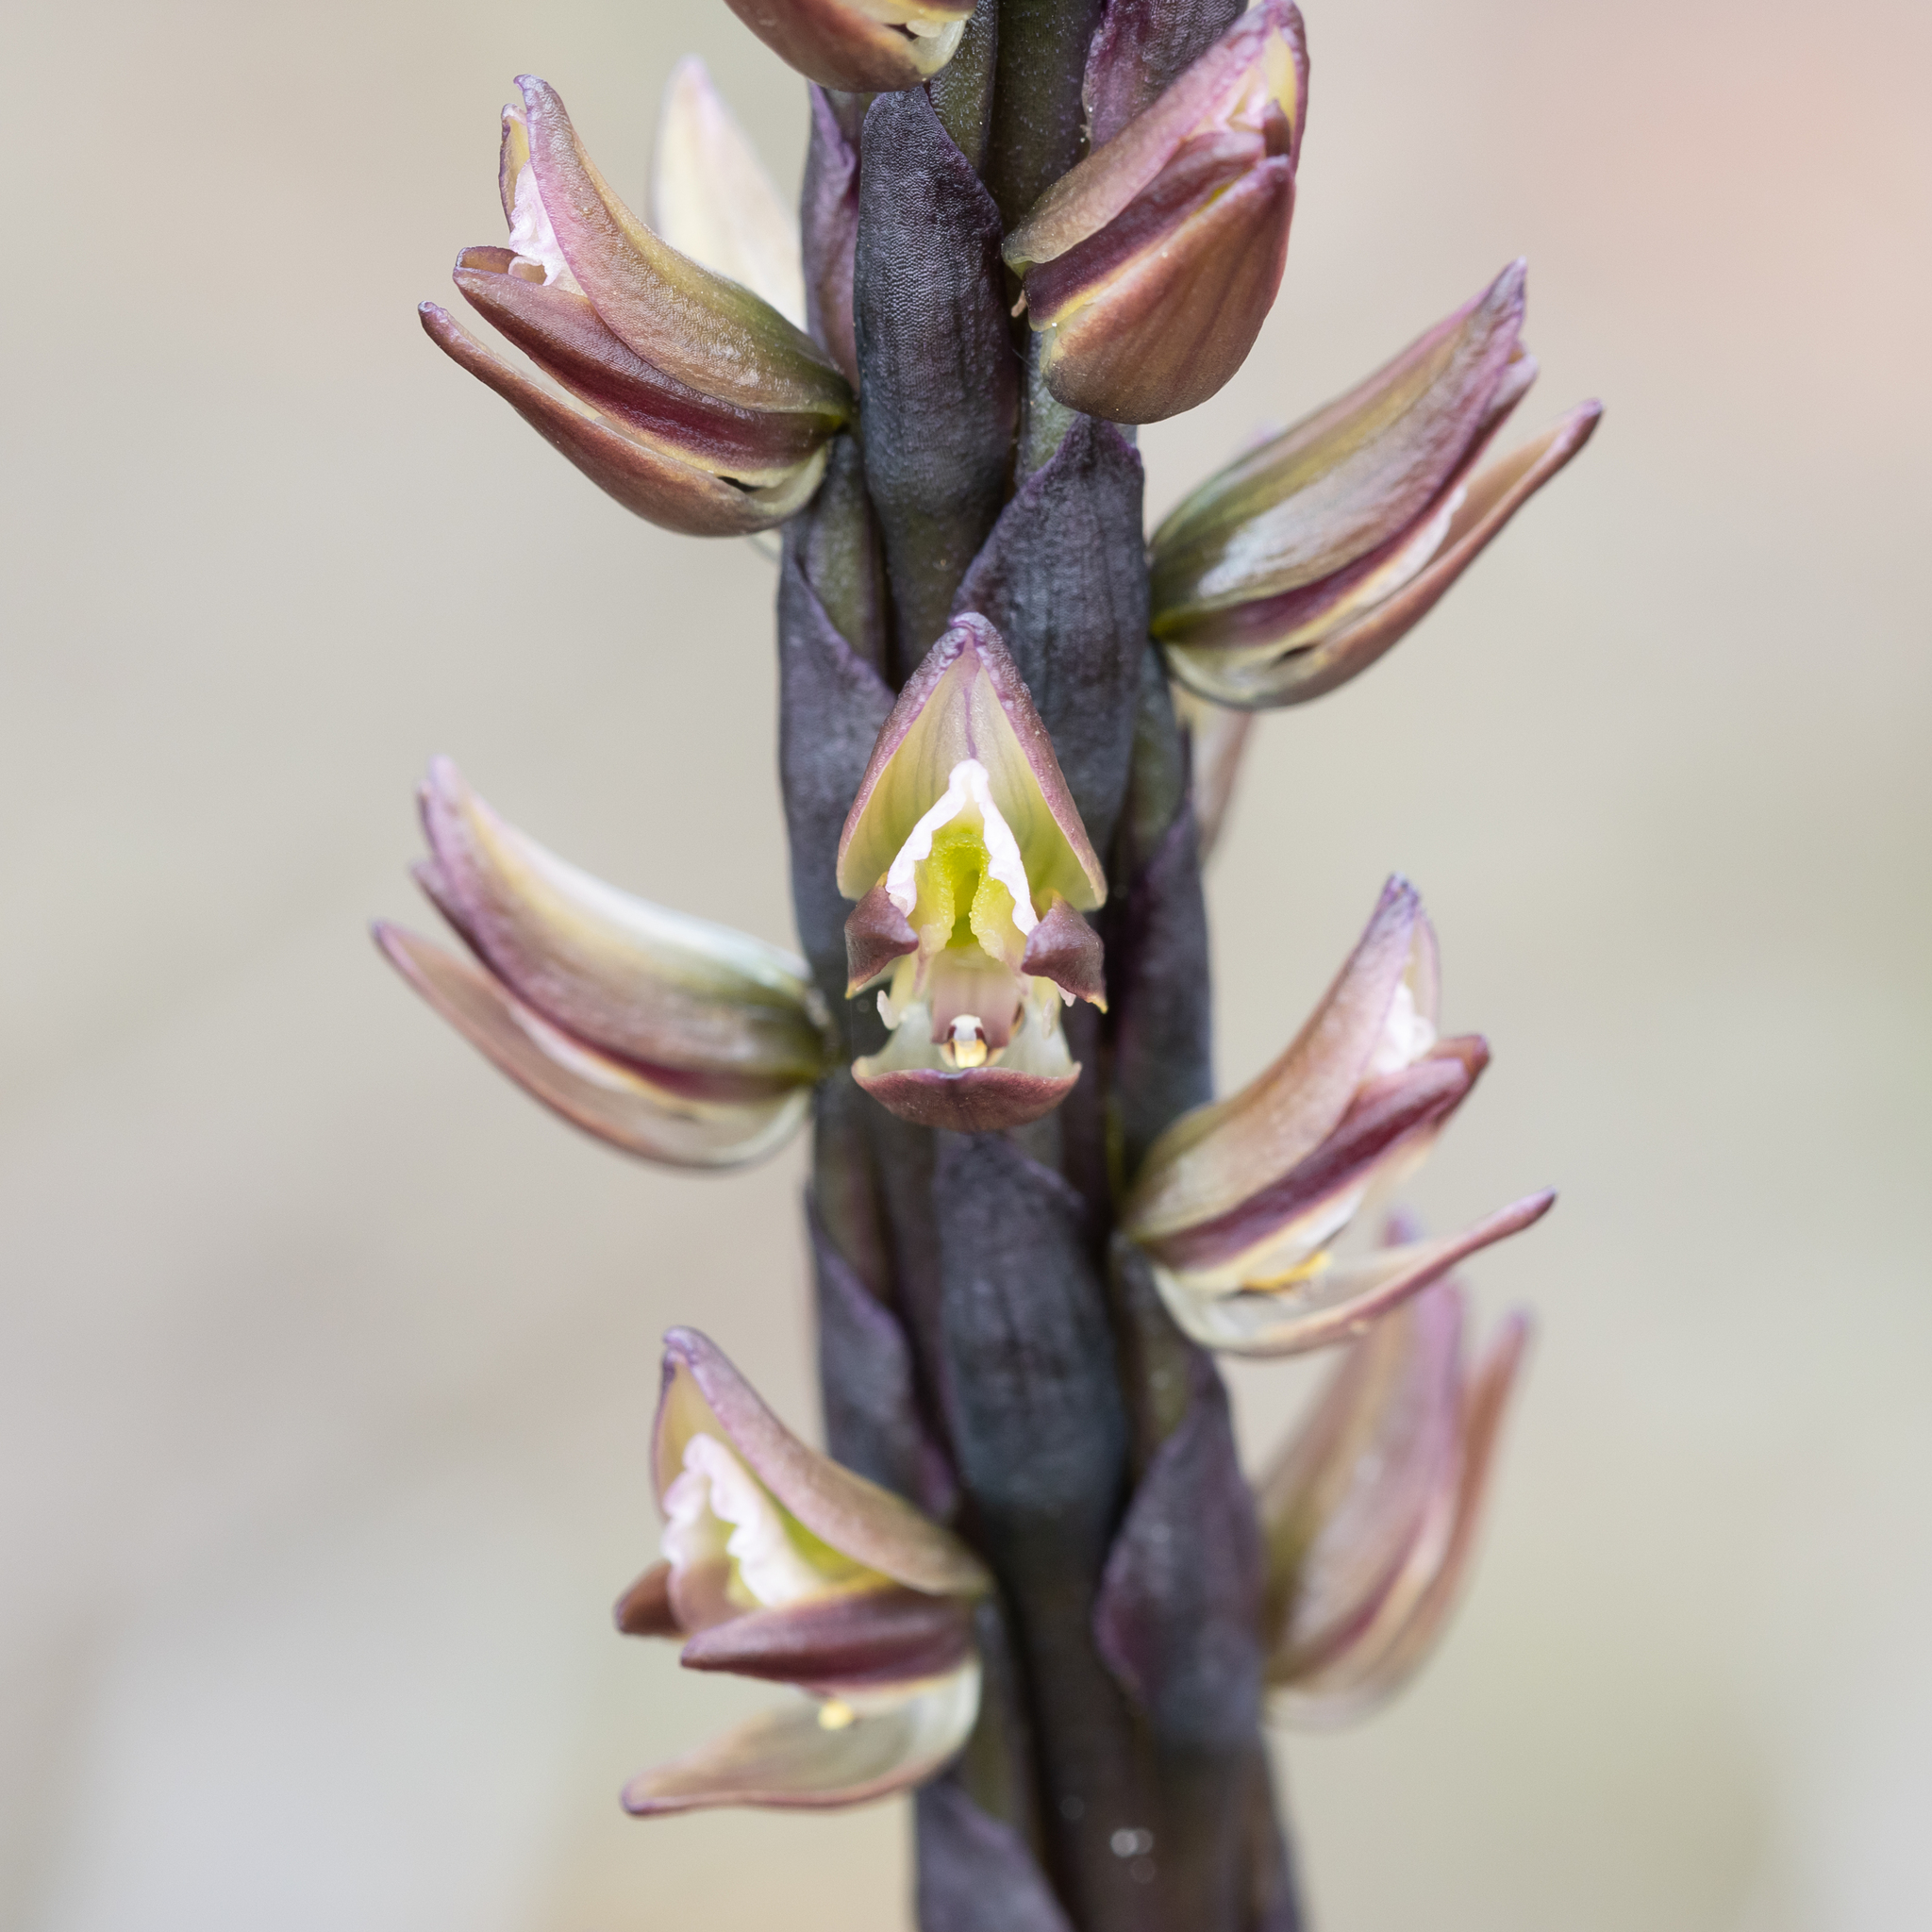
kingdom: Plantae
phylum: Tracheophyta
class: Liliopsida
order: Asparagales
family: Orchidaceae
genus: Prasophyllum
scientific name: Prasophyllum elatum
